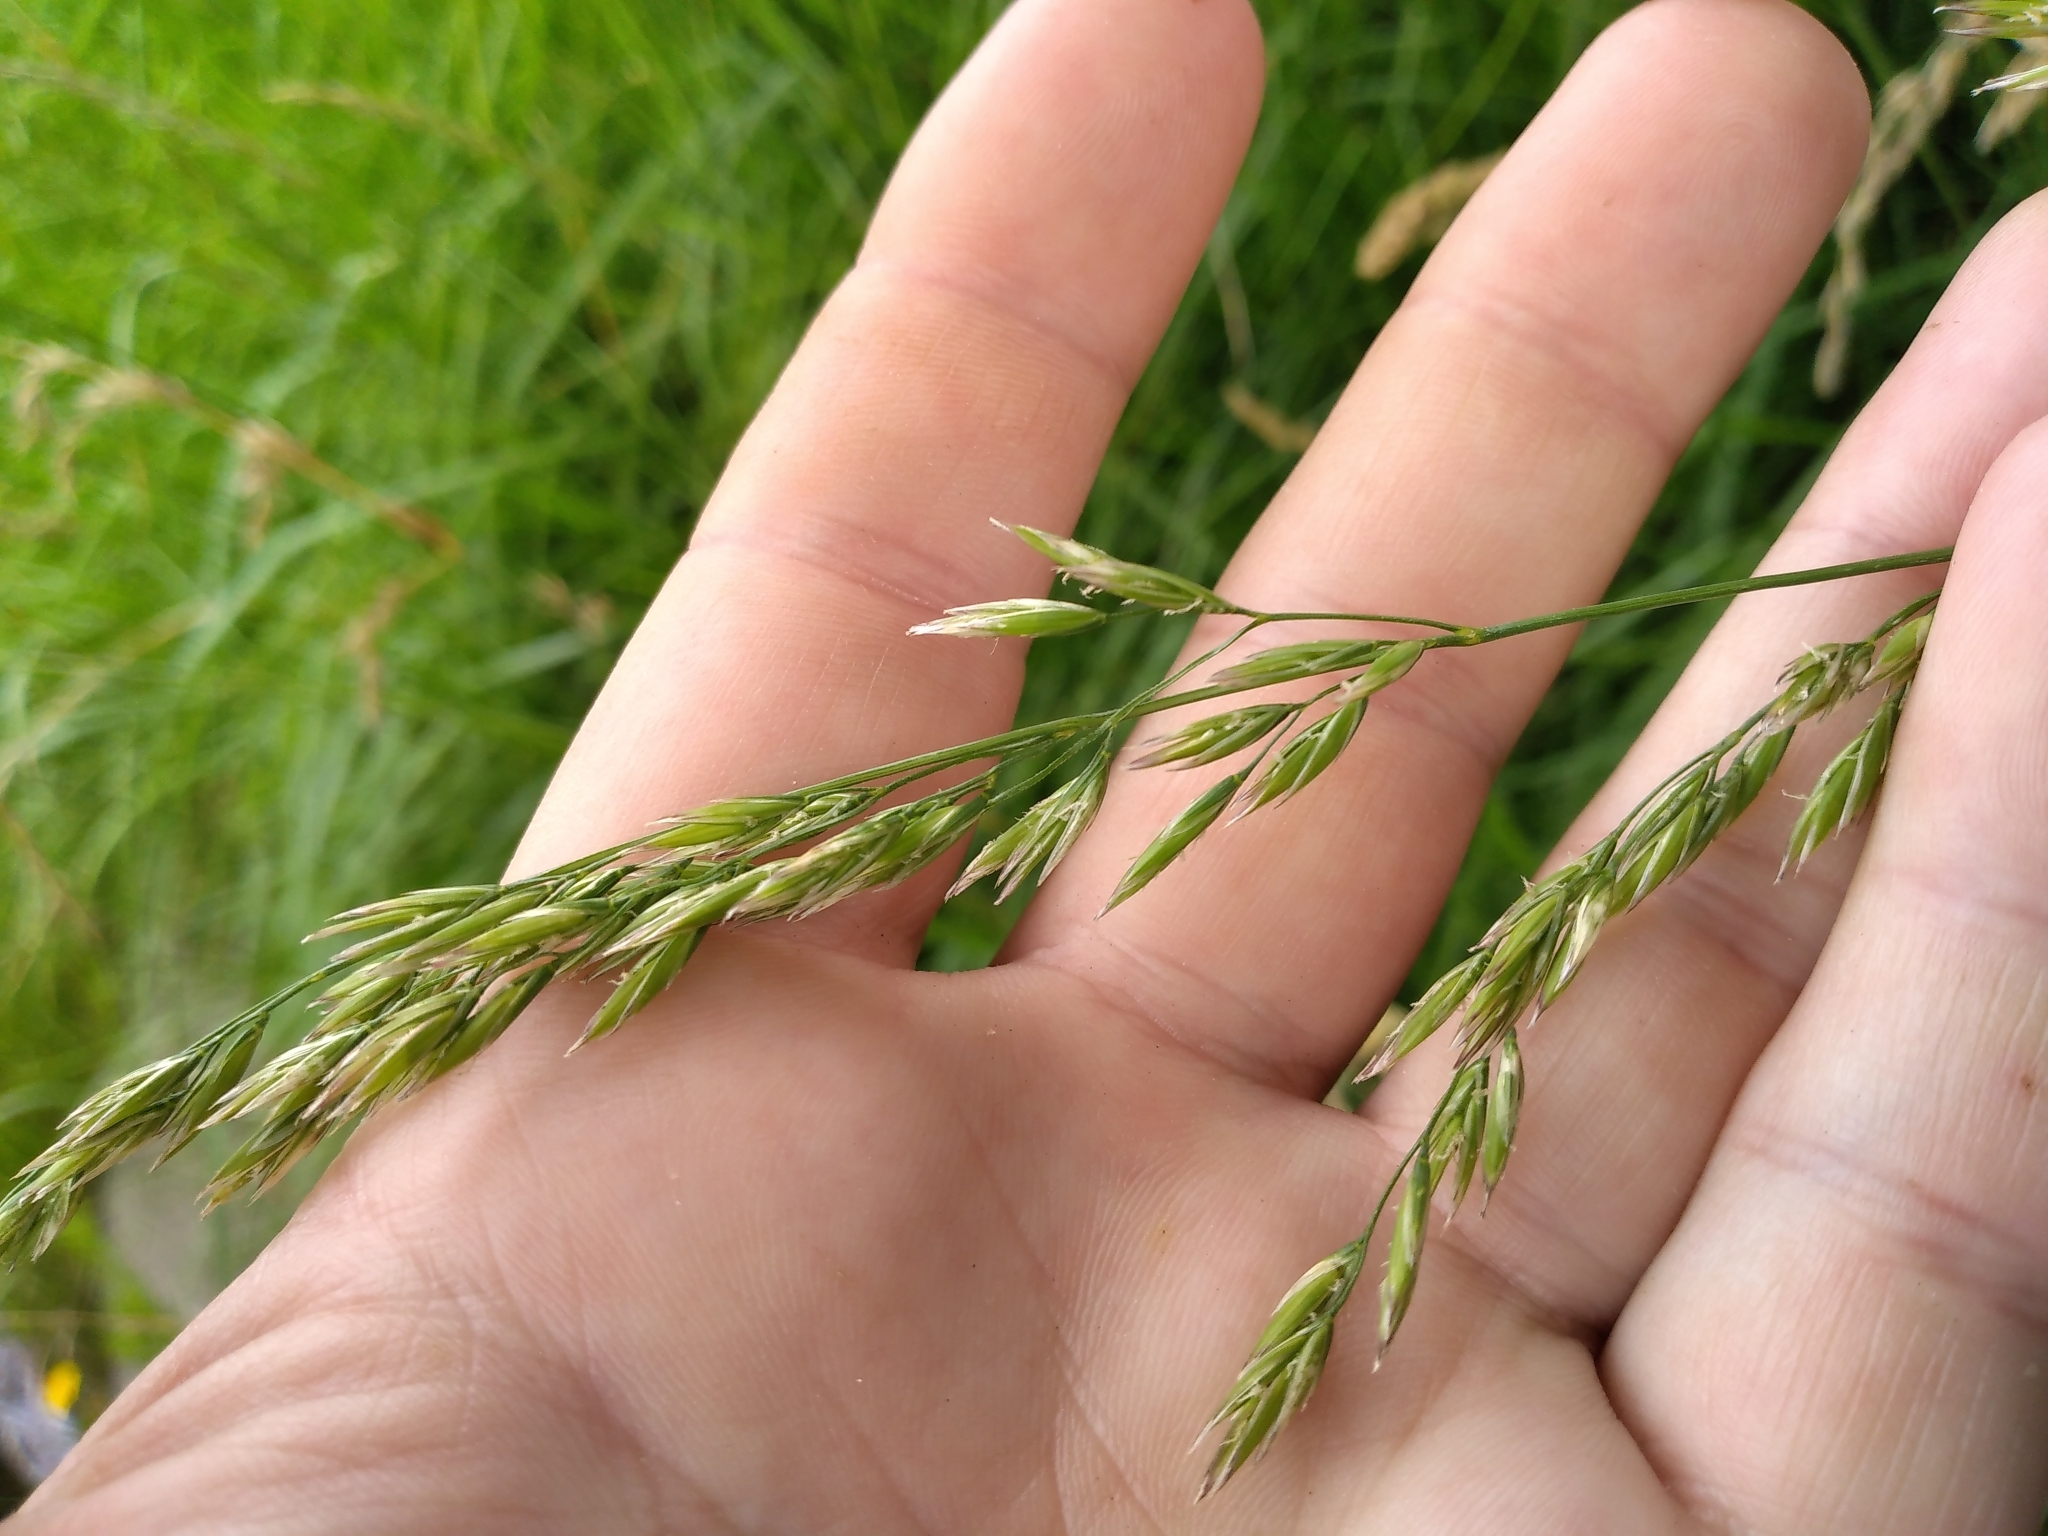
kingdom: Plantae
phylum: Tracheophyta
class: Liliopsida
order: Poales
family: Poaceae
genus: Lolium
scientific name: Lolium arundinaceum
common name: Reed fescue
